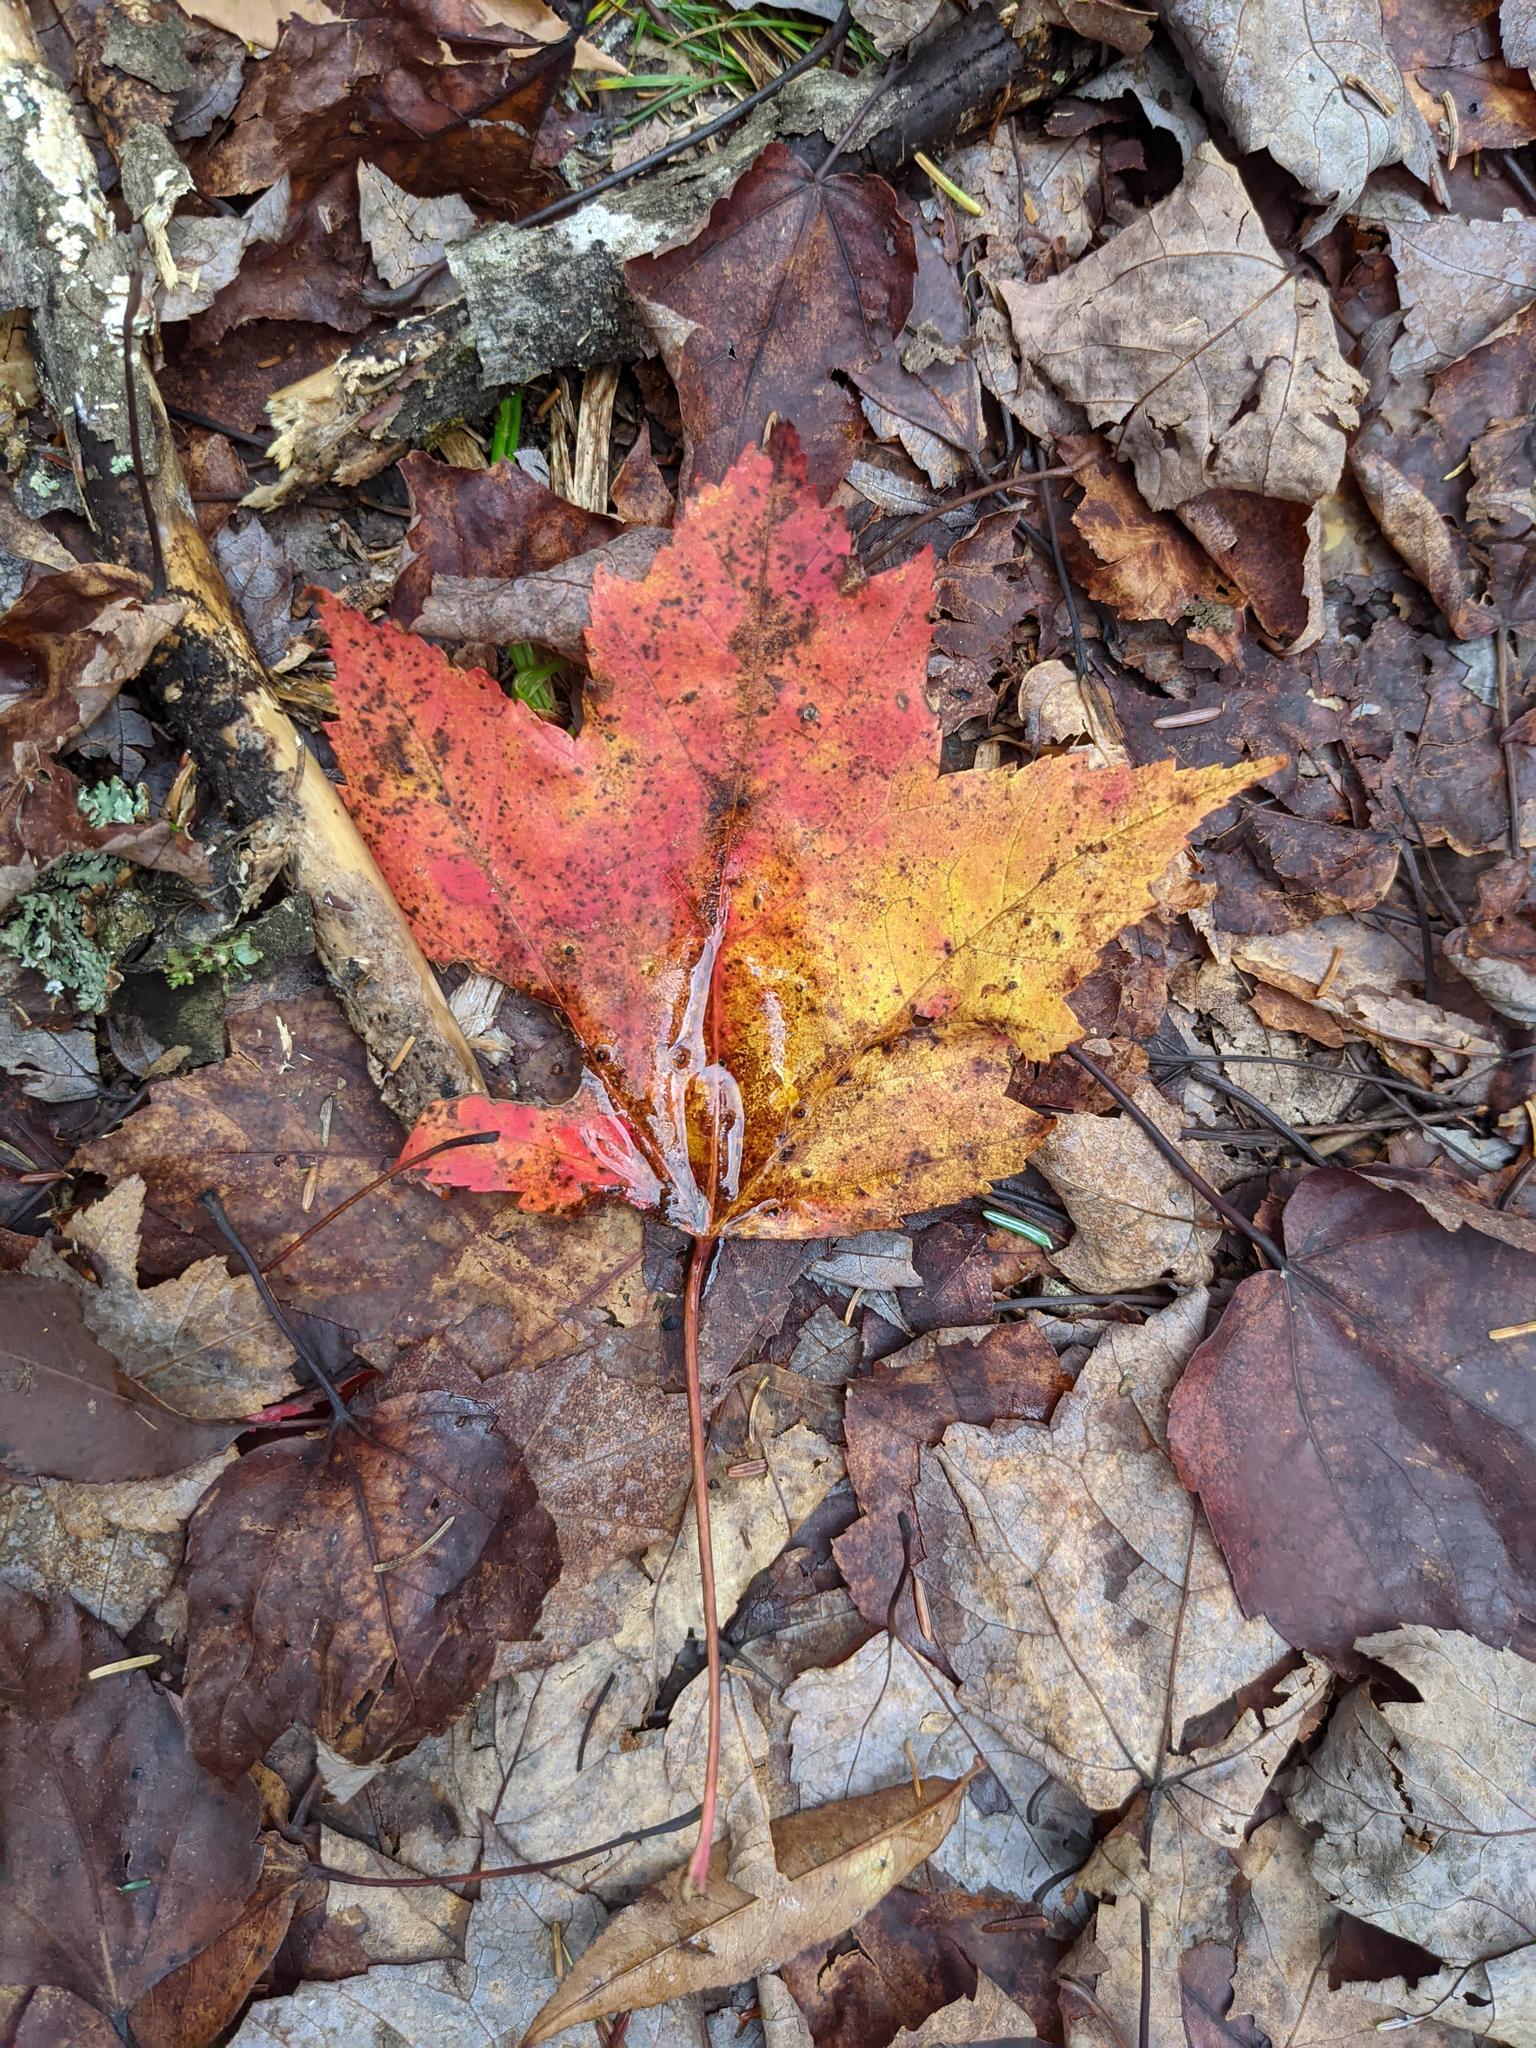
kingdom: Plantae
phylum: Tracheophyta
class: Magnoliopsida
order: Sapindales
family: Sapindaceae
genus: Acer
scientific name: Acer rubrum
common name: Red maple
